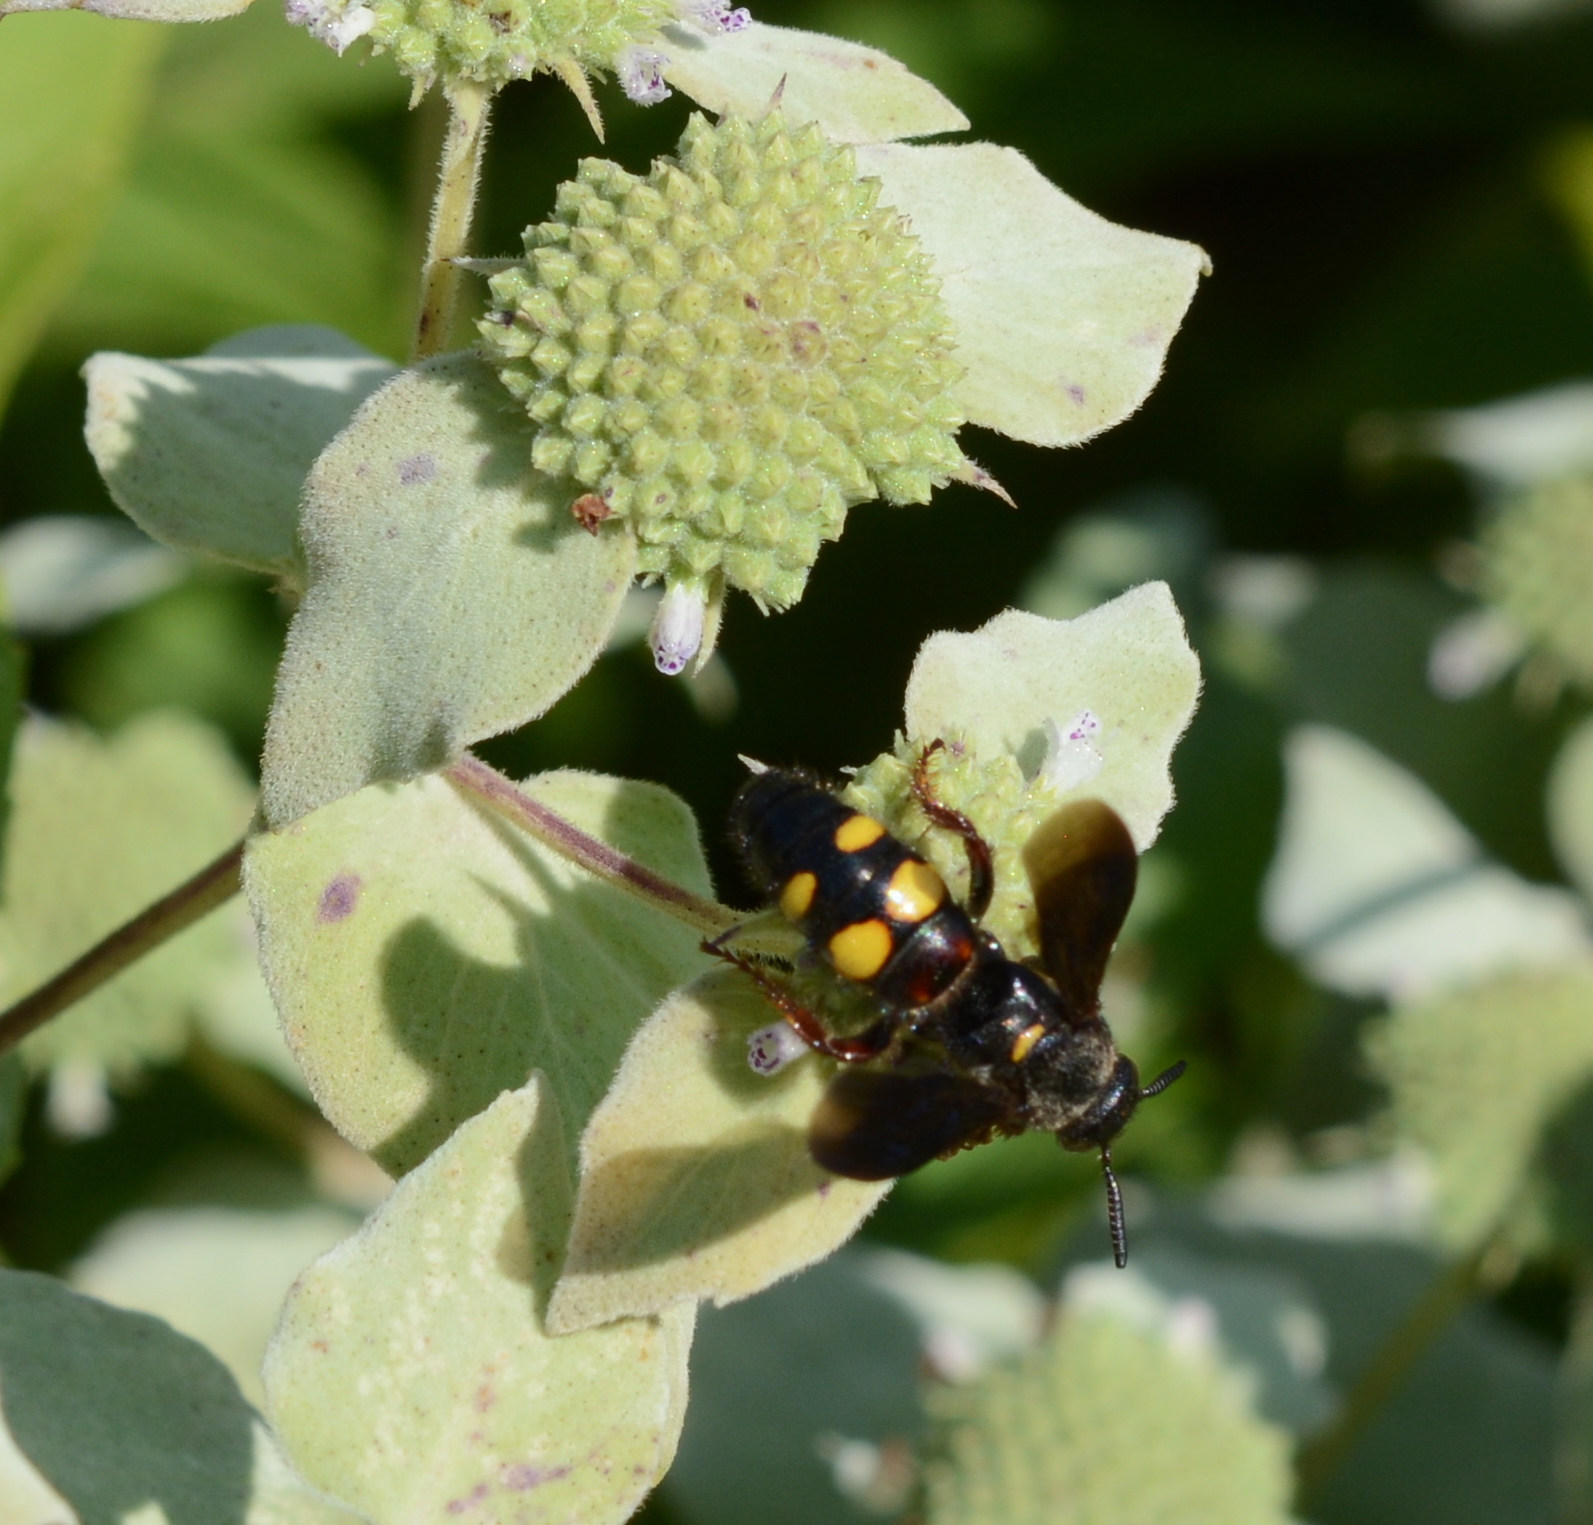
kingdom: Animalia
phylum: Arthropoda
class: Insecta
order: Hymenoptera
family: Scoliidae
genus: Scolia
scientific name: Scolia nobilitata
